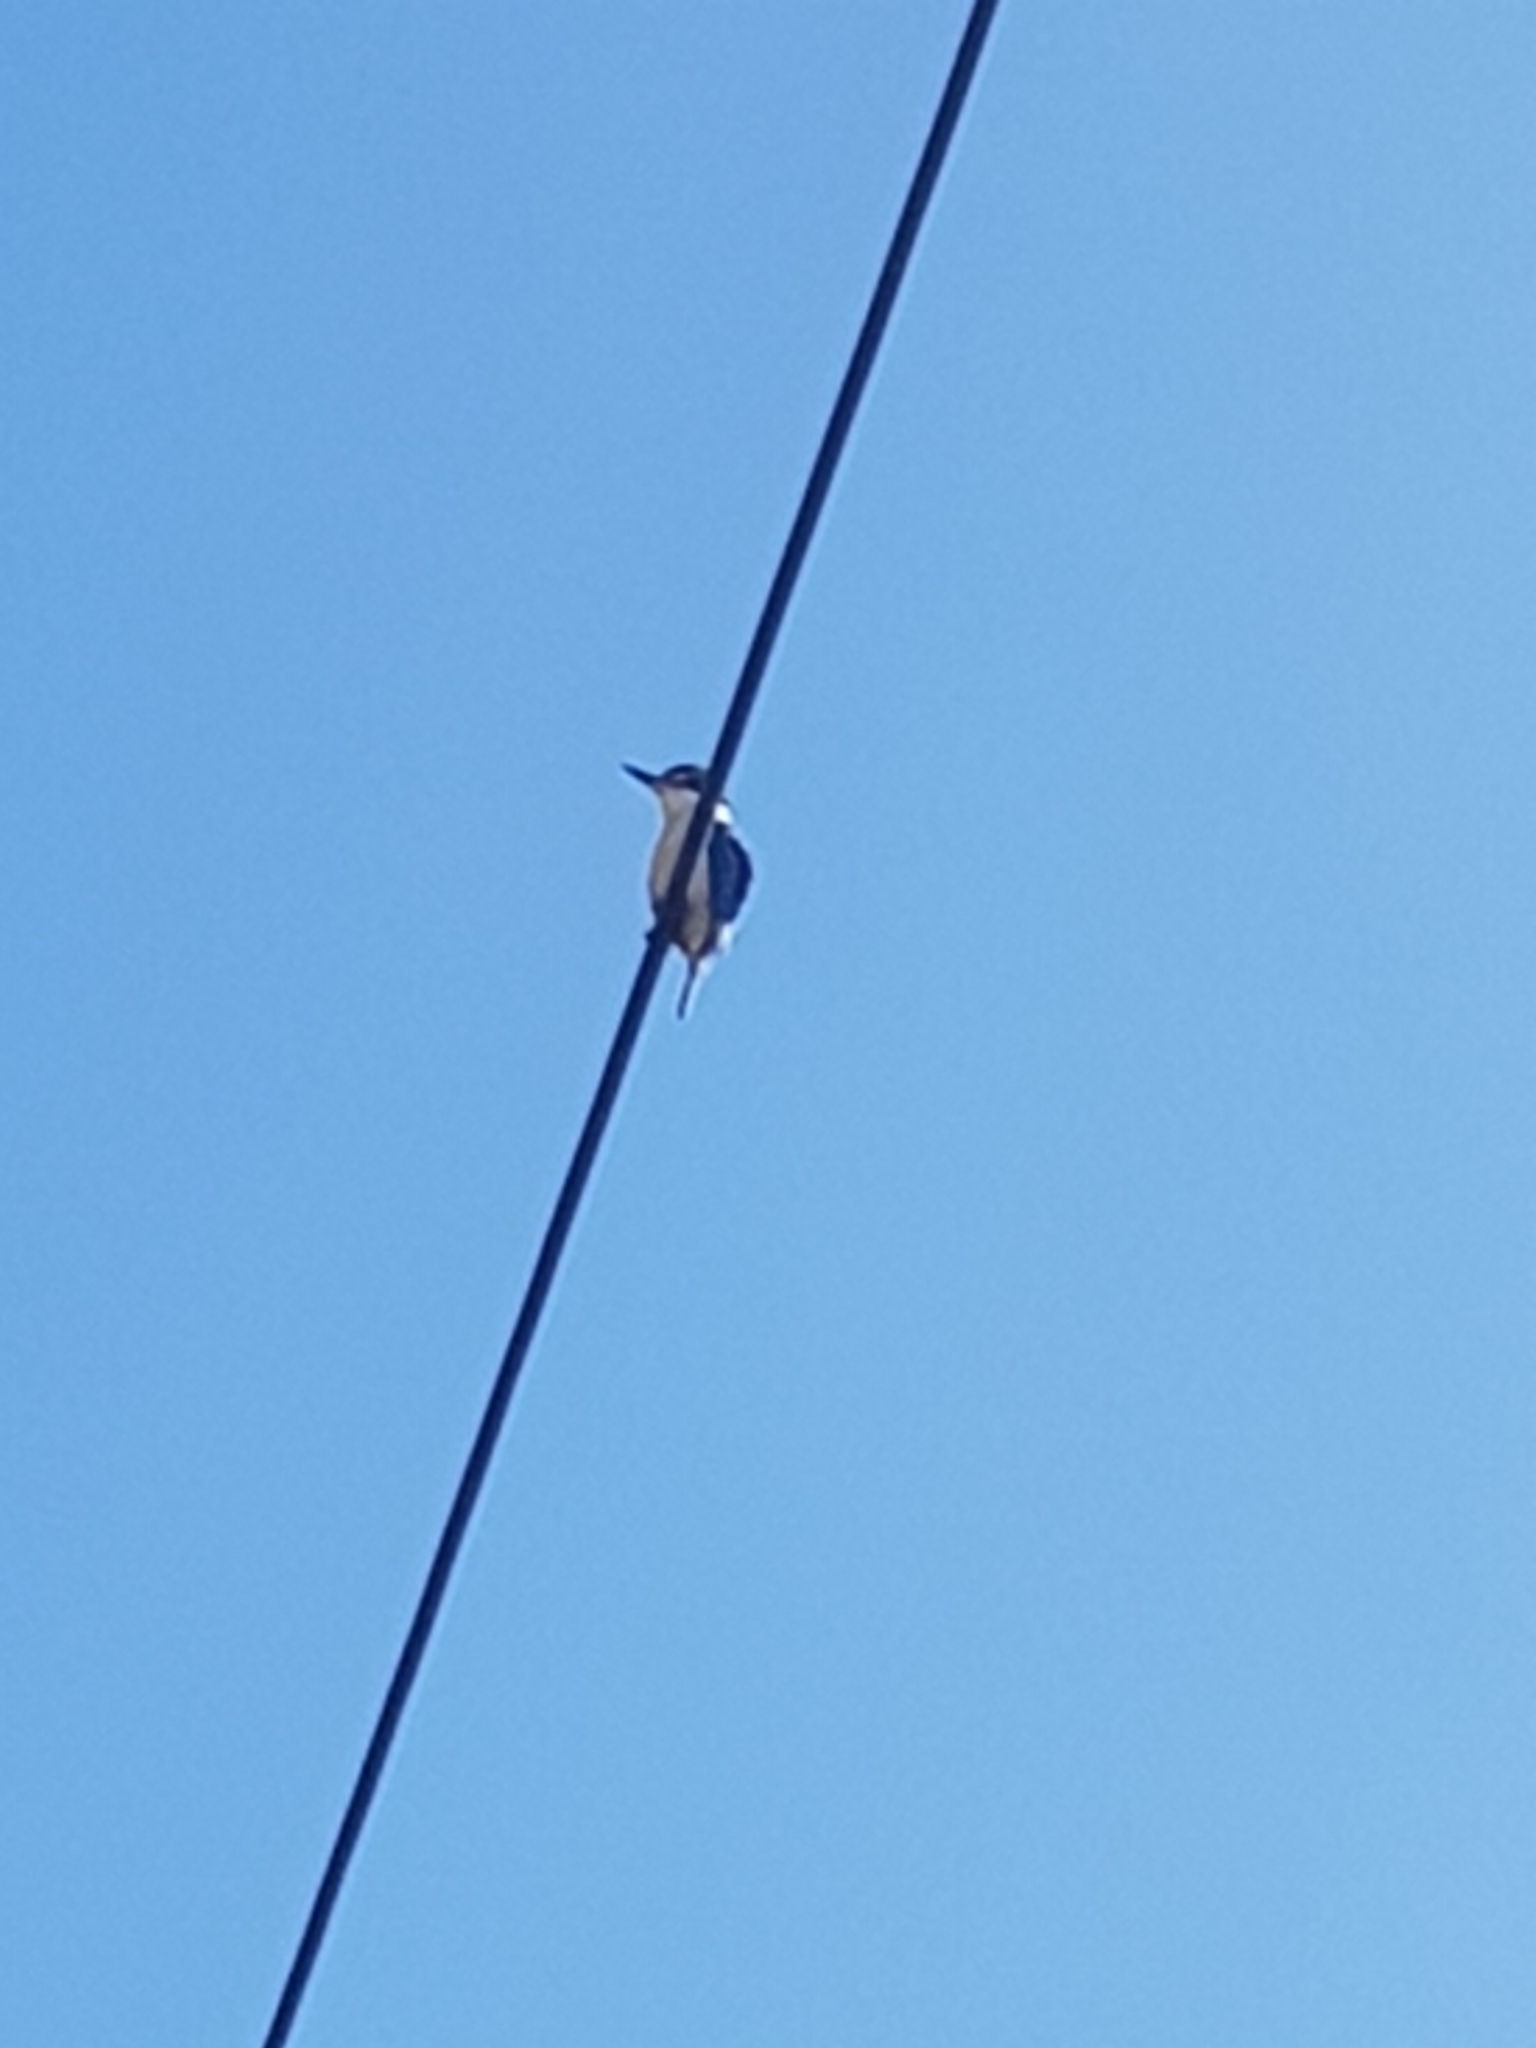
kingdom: Animalia
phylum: Chordata
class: Aves
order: Coraciiformes
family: Alcedinidae
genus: Todiramphus
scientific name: Todiramphus sanctus
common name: Sacred kingfisher
